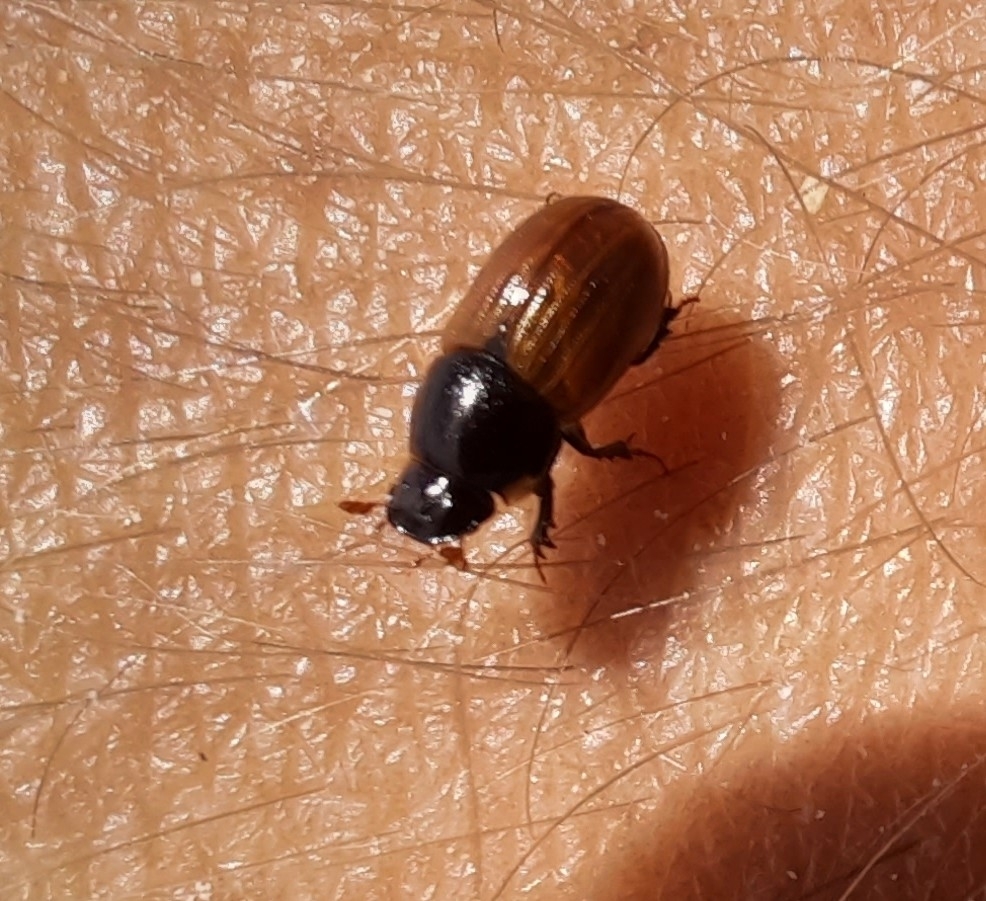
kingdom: Animalia
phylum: Arthropoda
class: Insecta
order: Coleoptera
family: Scarabaeidae
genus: Aphodius
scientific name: Aphodius fimetarius
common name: Common dung beetle
